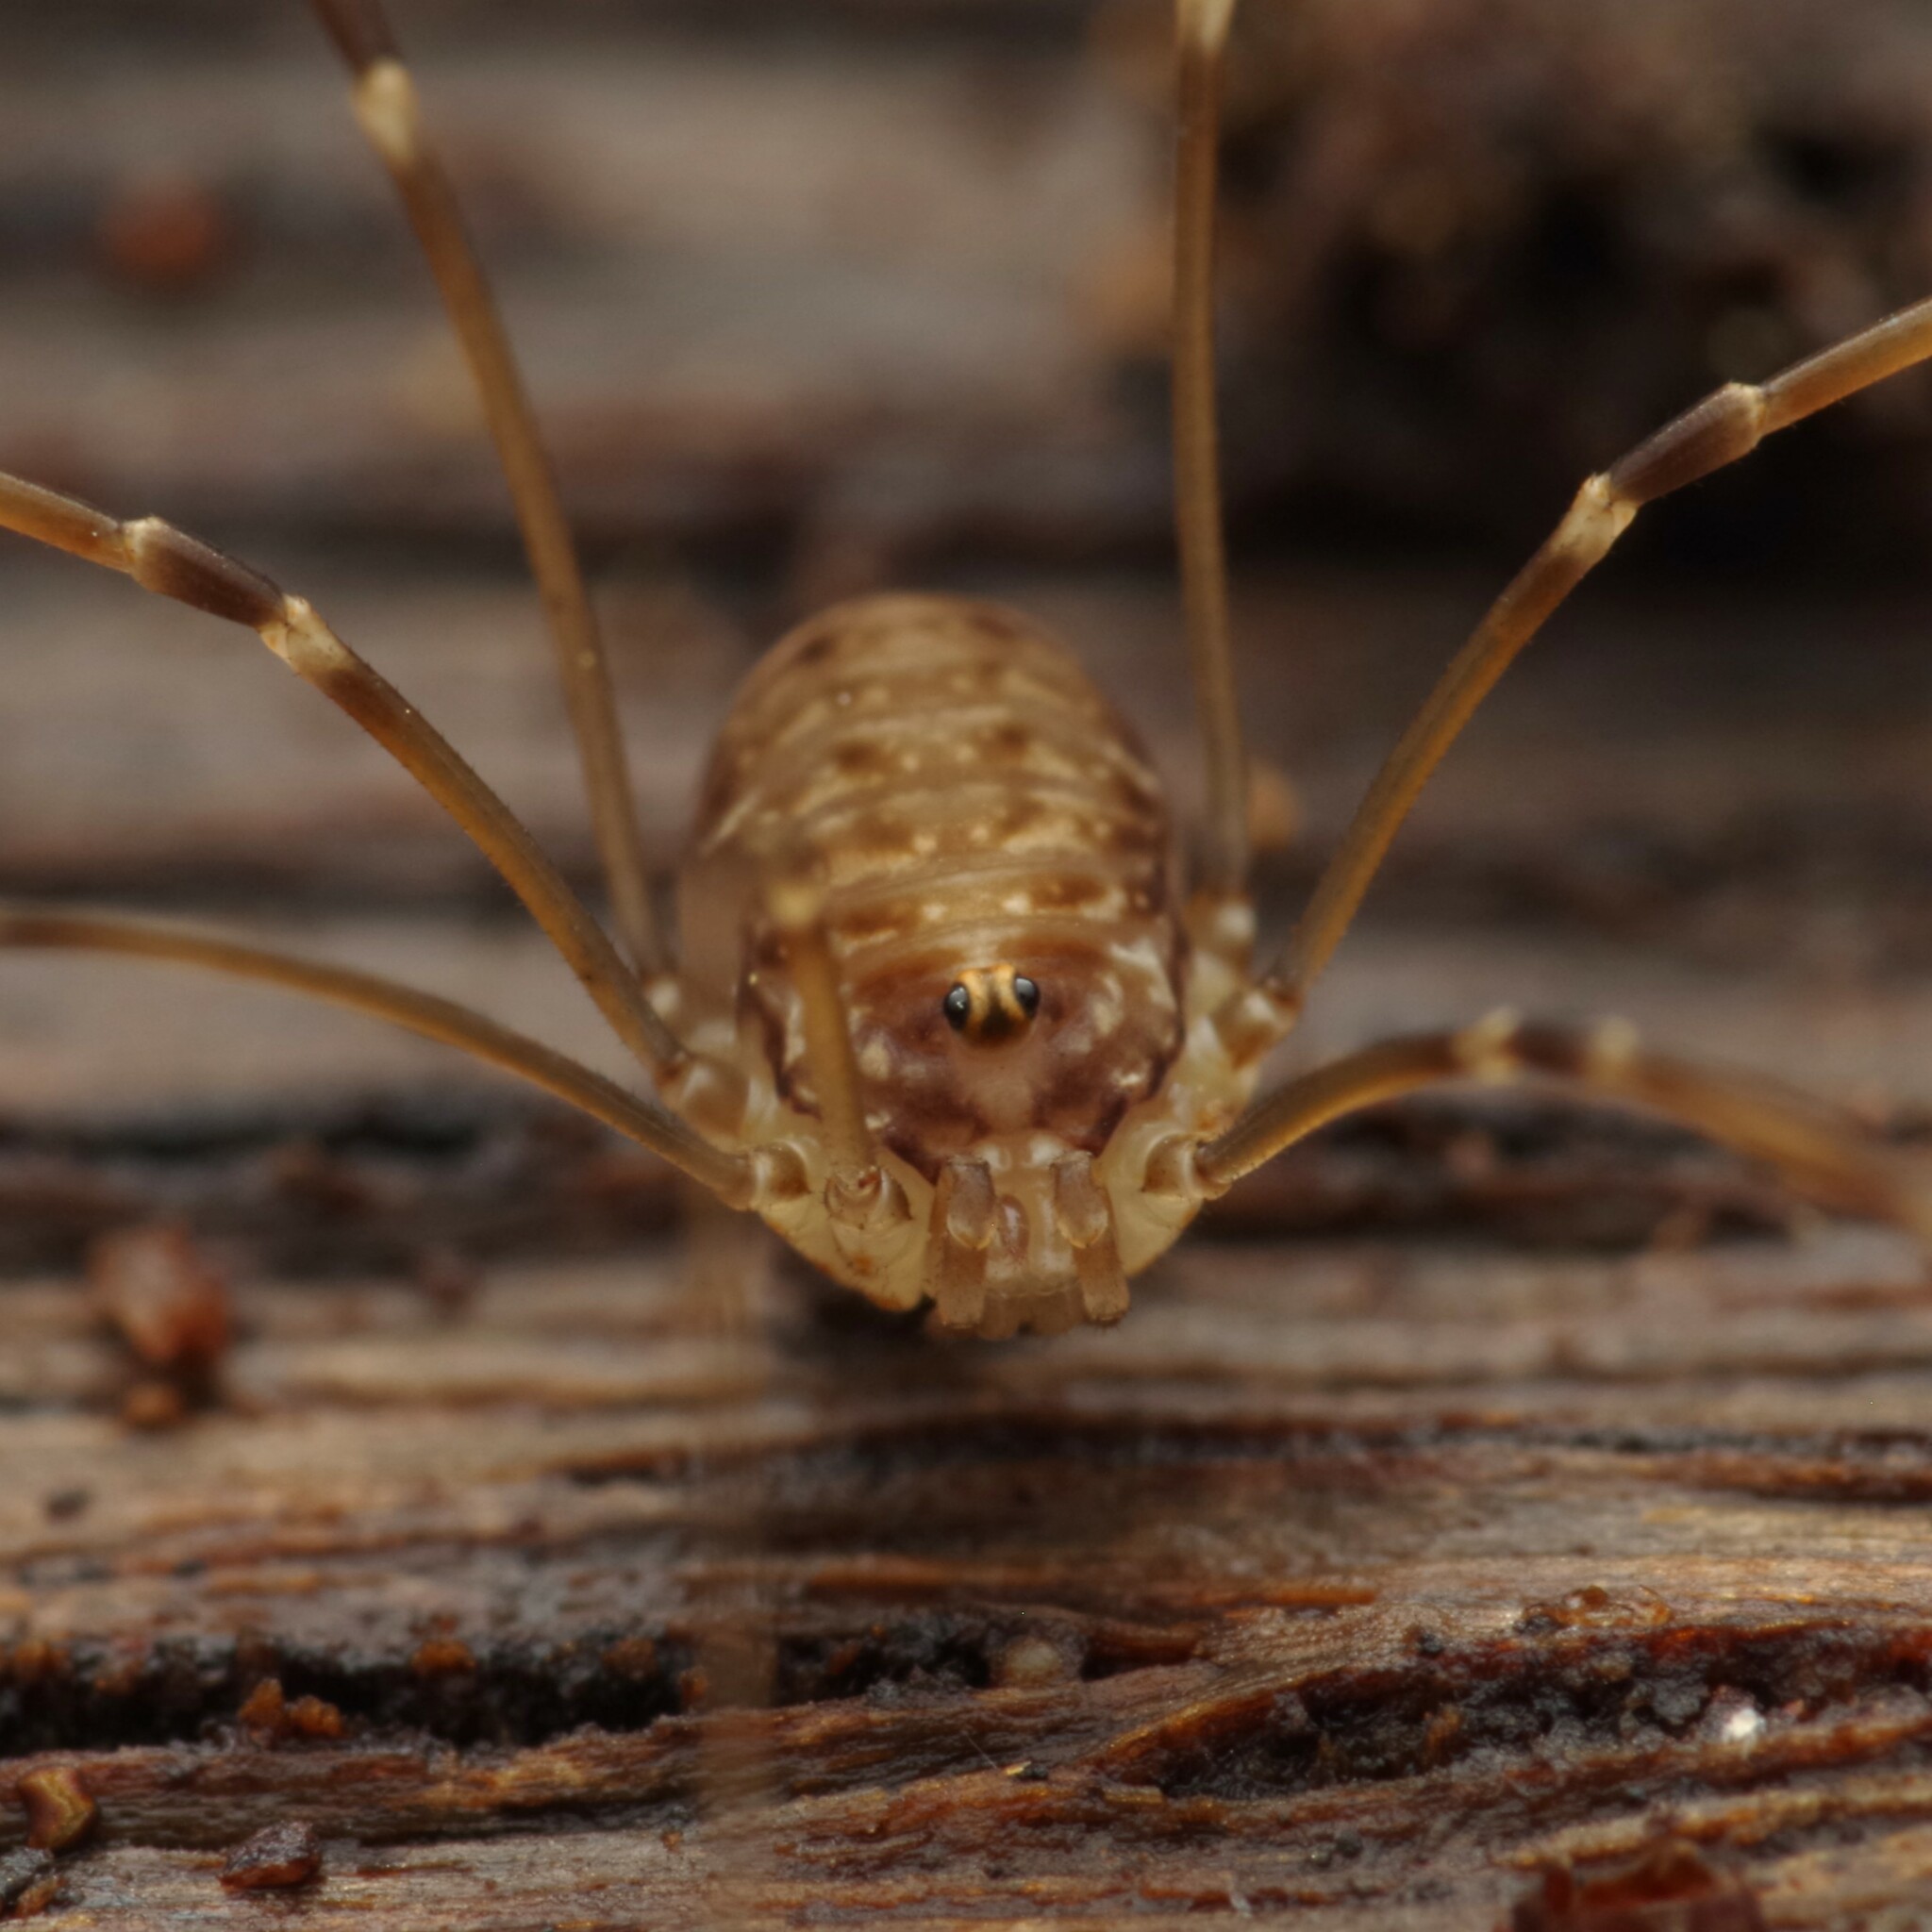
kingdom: Animalia
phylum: Arthropoda
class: Arachnida
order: Opiliones
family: Sclerosomatidae
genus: Leiobunum
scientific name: Leiobunum blackwalli
